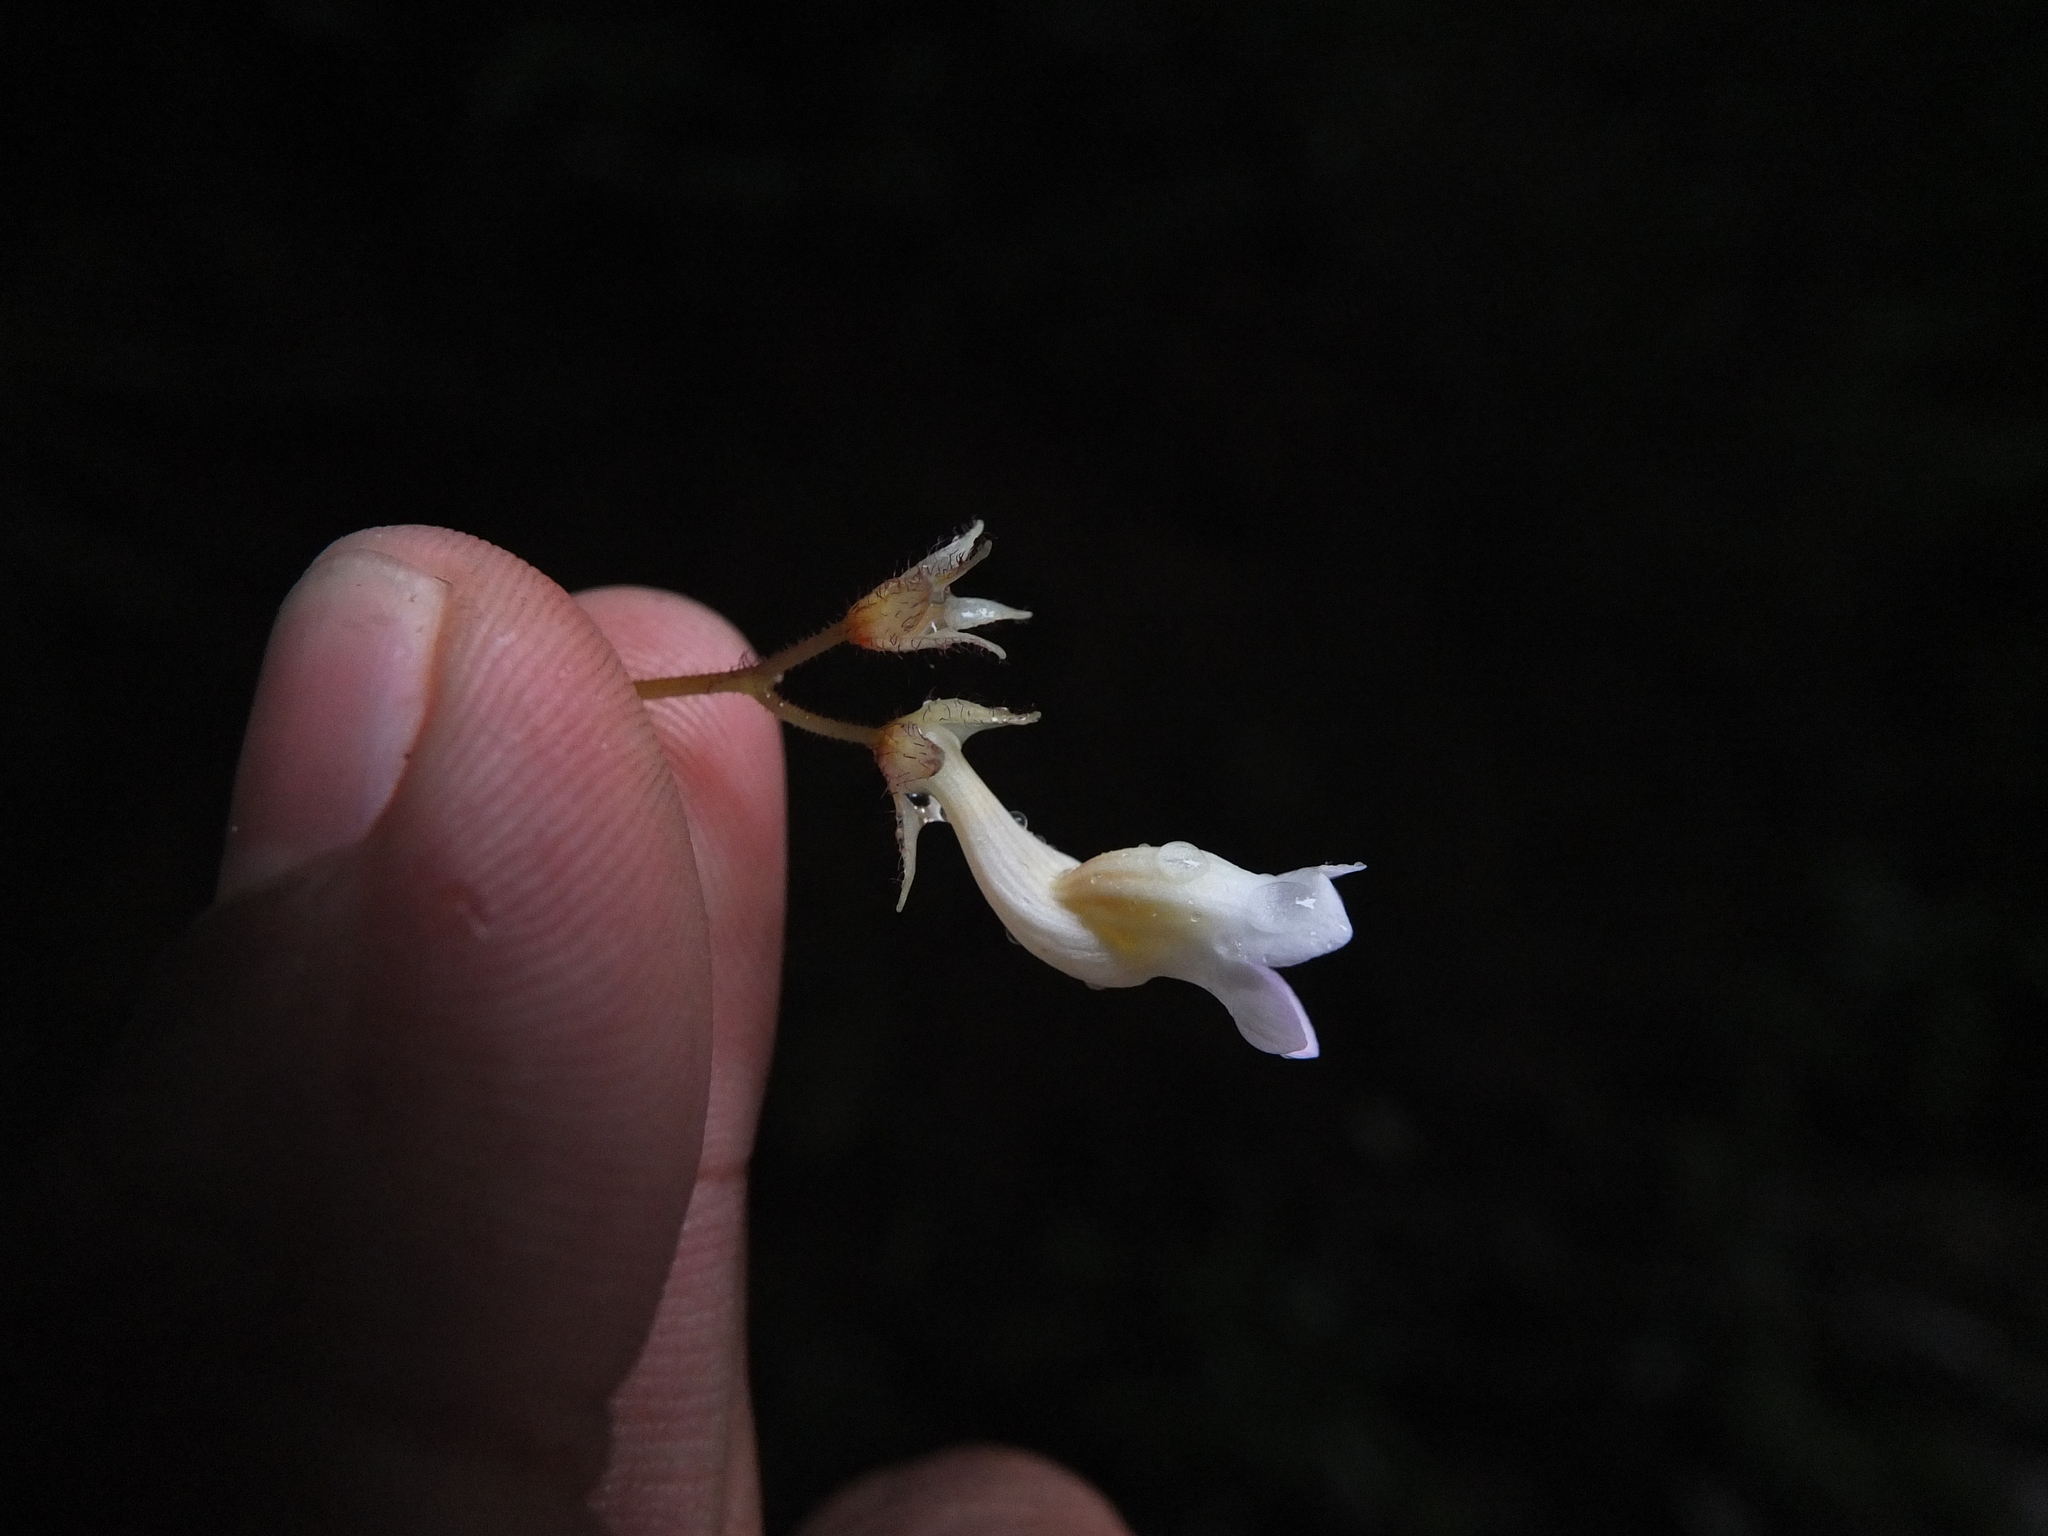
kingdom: Plantae
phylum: Tracheophyta
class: Magnoliopsida
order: Lamiales
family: Gesneriaceae
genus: Jerdonia
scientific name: Jerdonia indica
